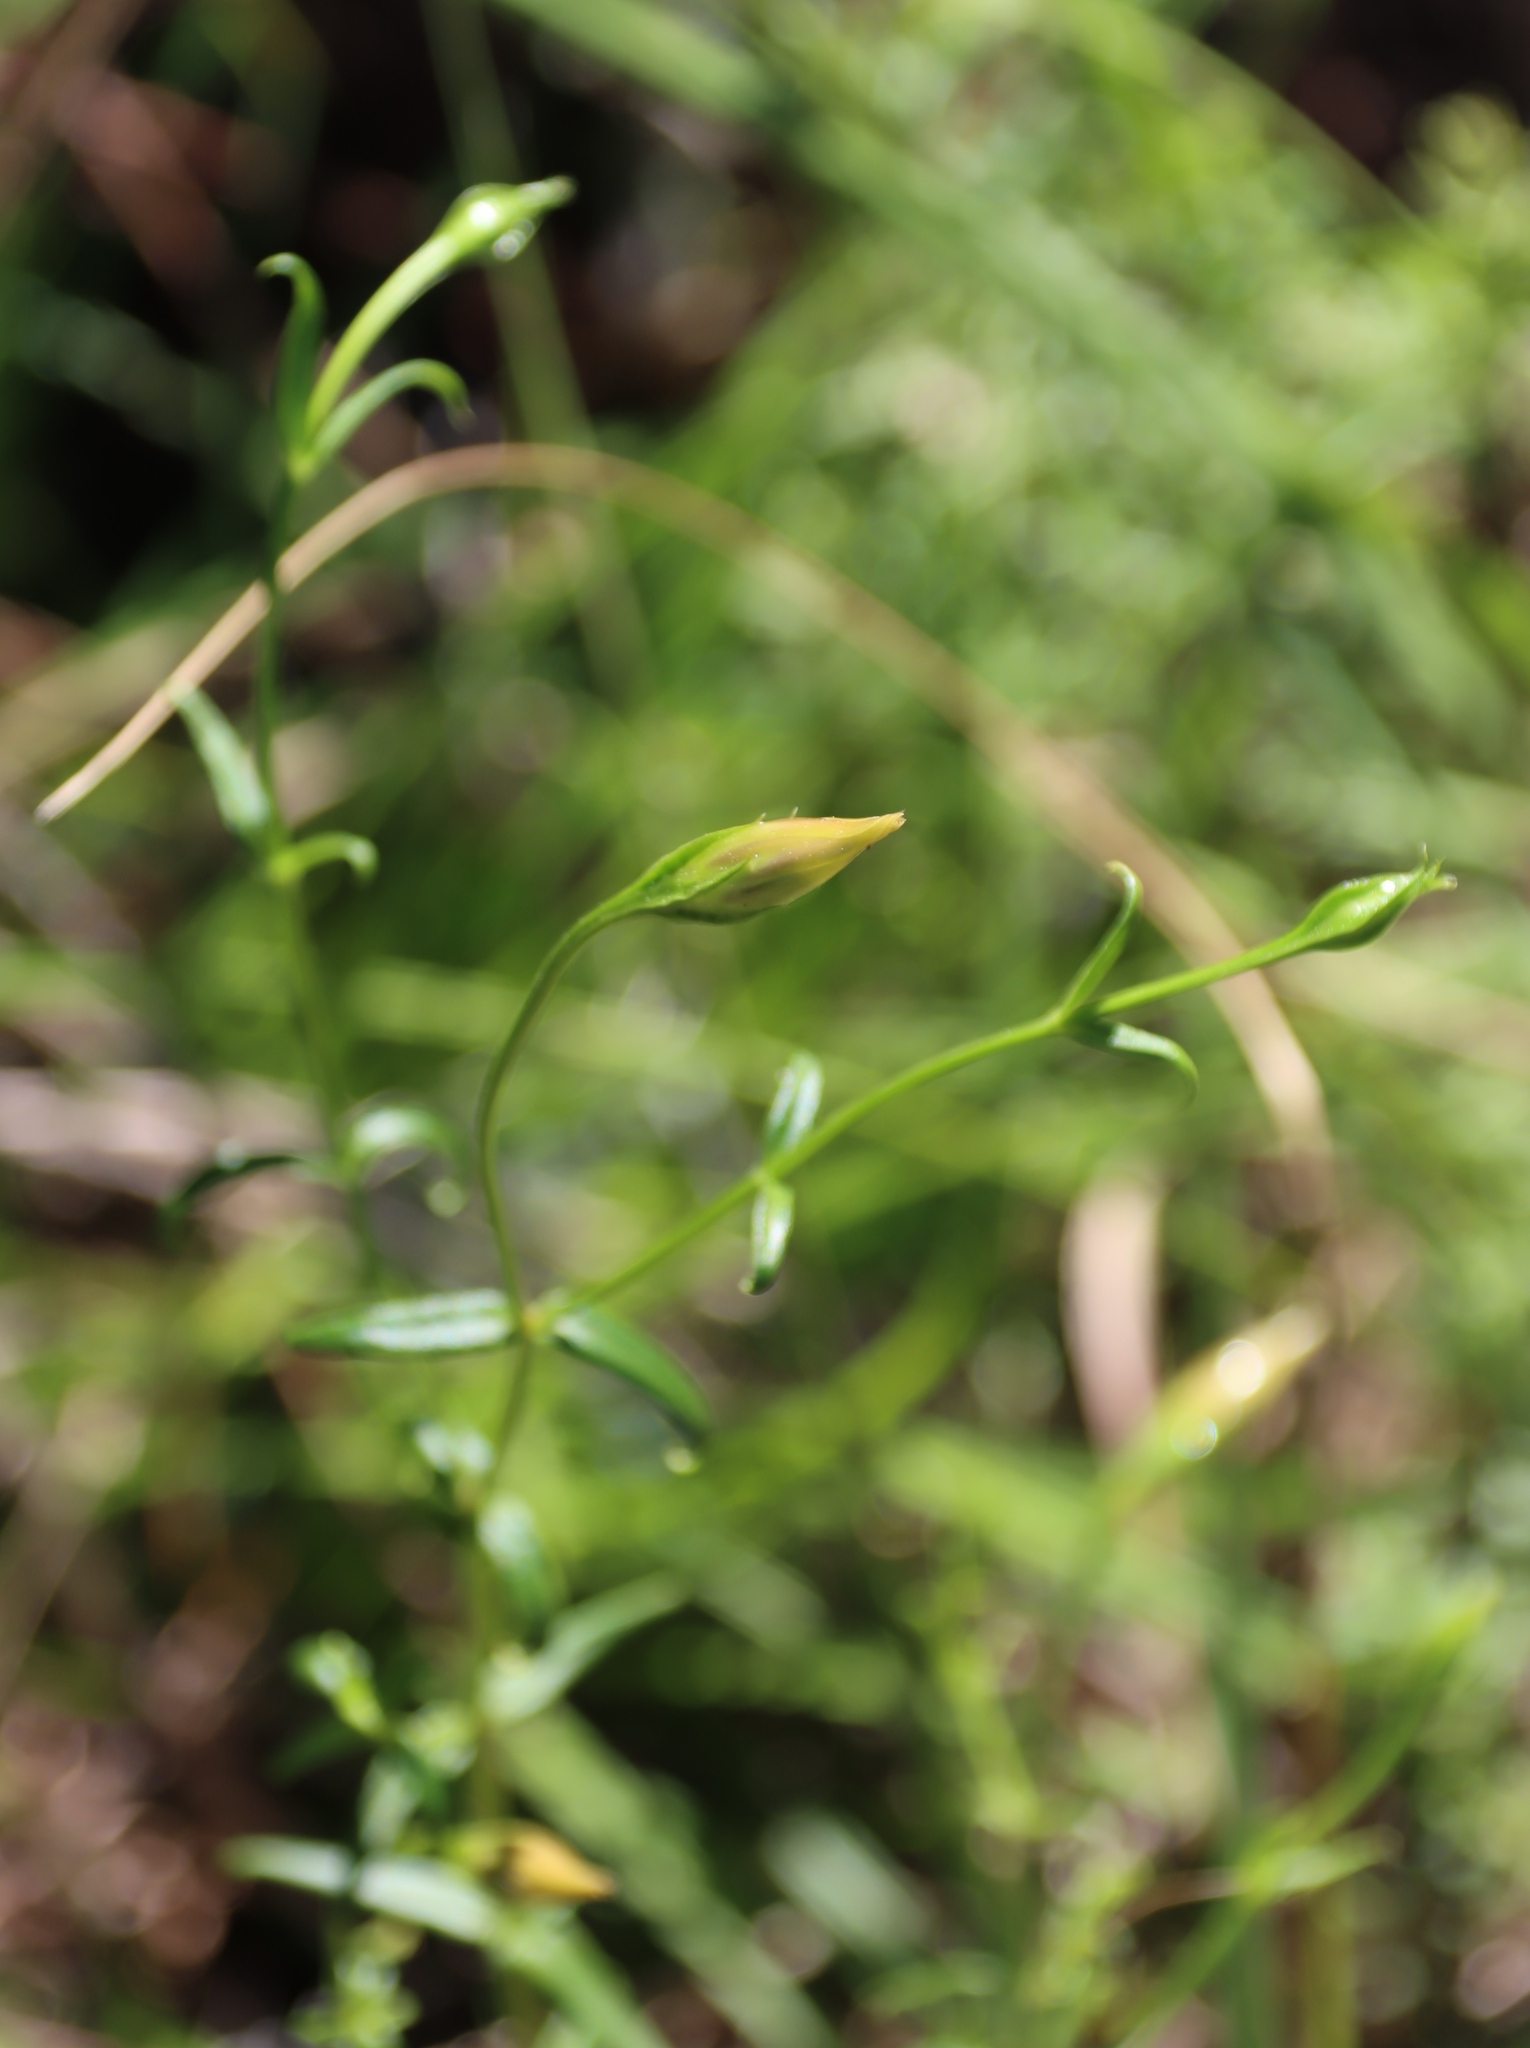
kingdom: Plantae
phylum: Tracheophyta
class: Magnoliopsida
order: Gentianales
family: Gentianaceae
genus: Chironia
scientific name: Chironia tetragona
